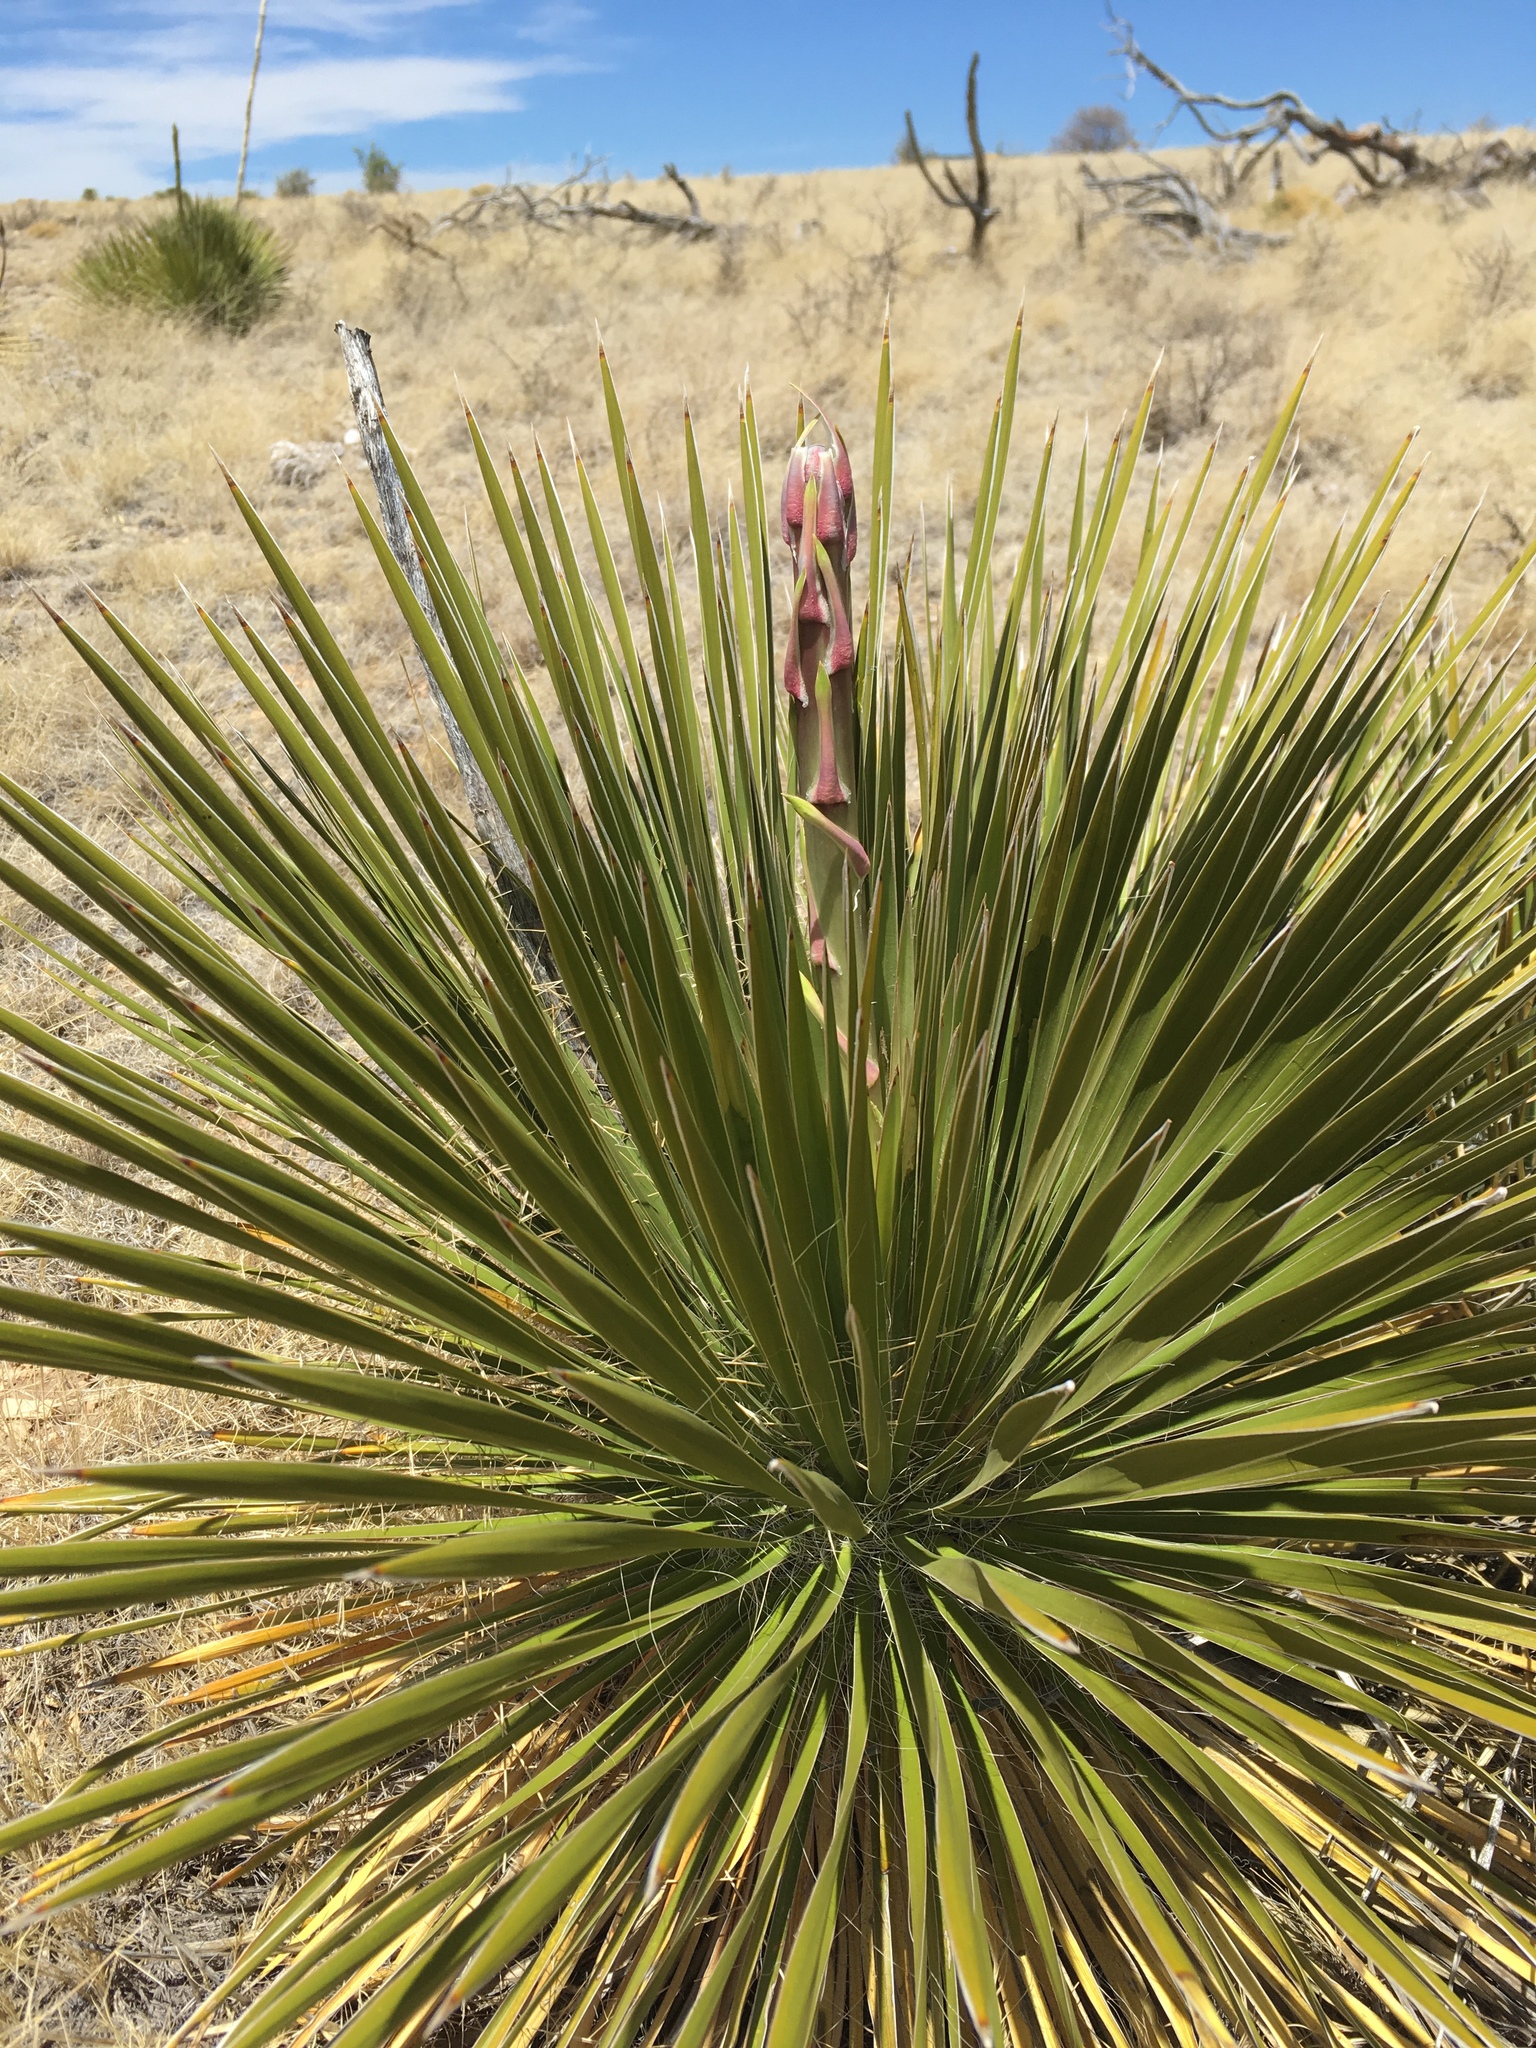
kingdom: Plantae
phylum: Tracheophyta
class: Liliopsida
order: Asparagales
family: Asparagaceae
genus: Yucca
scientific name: Yucca glauca
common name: Great plains yucca
